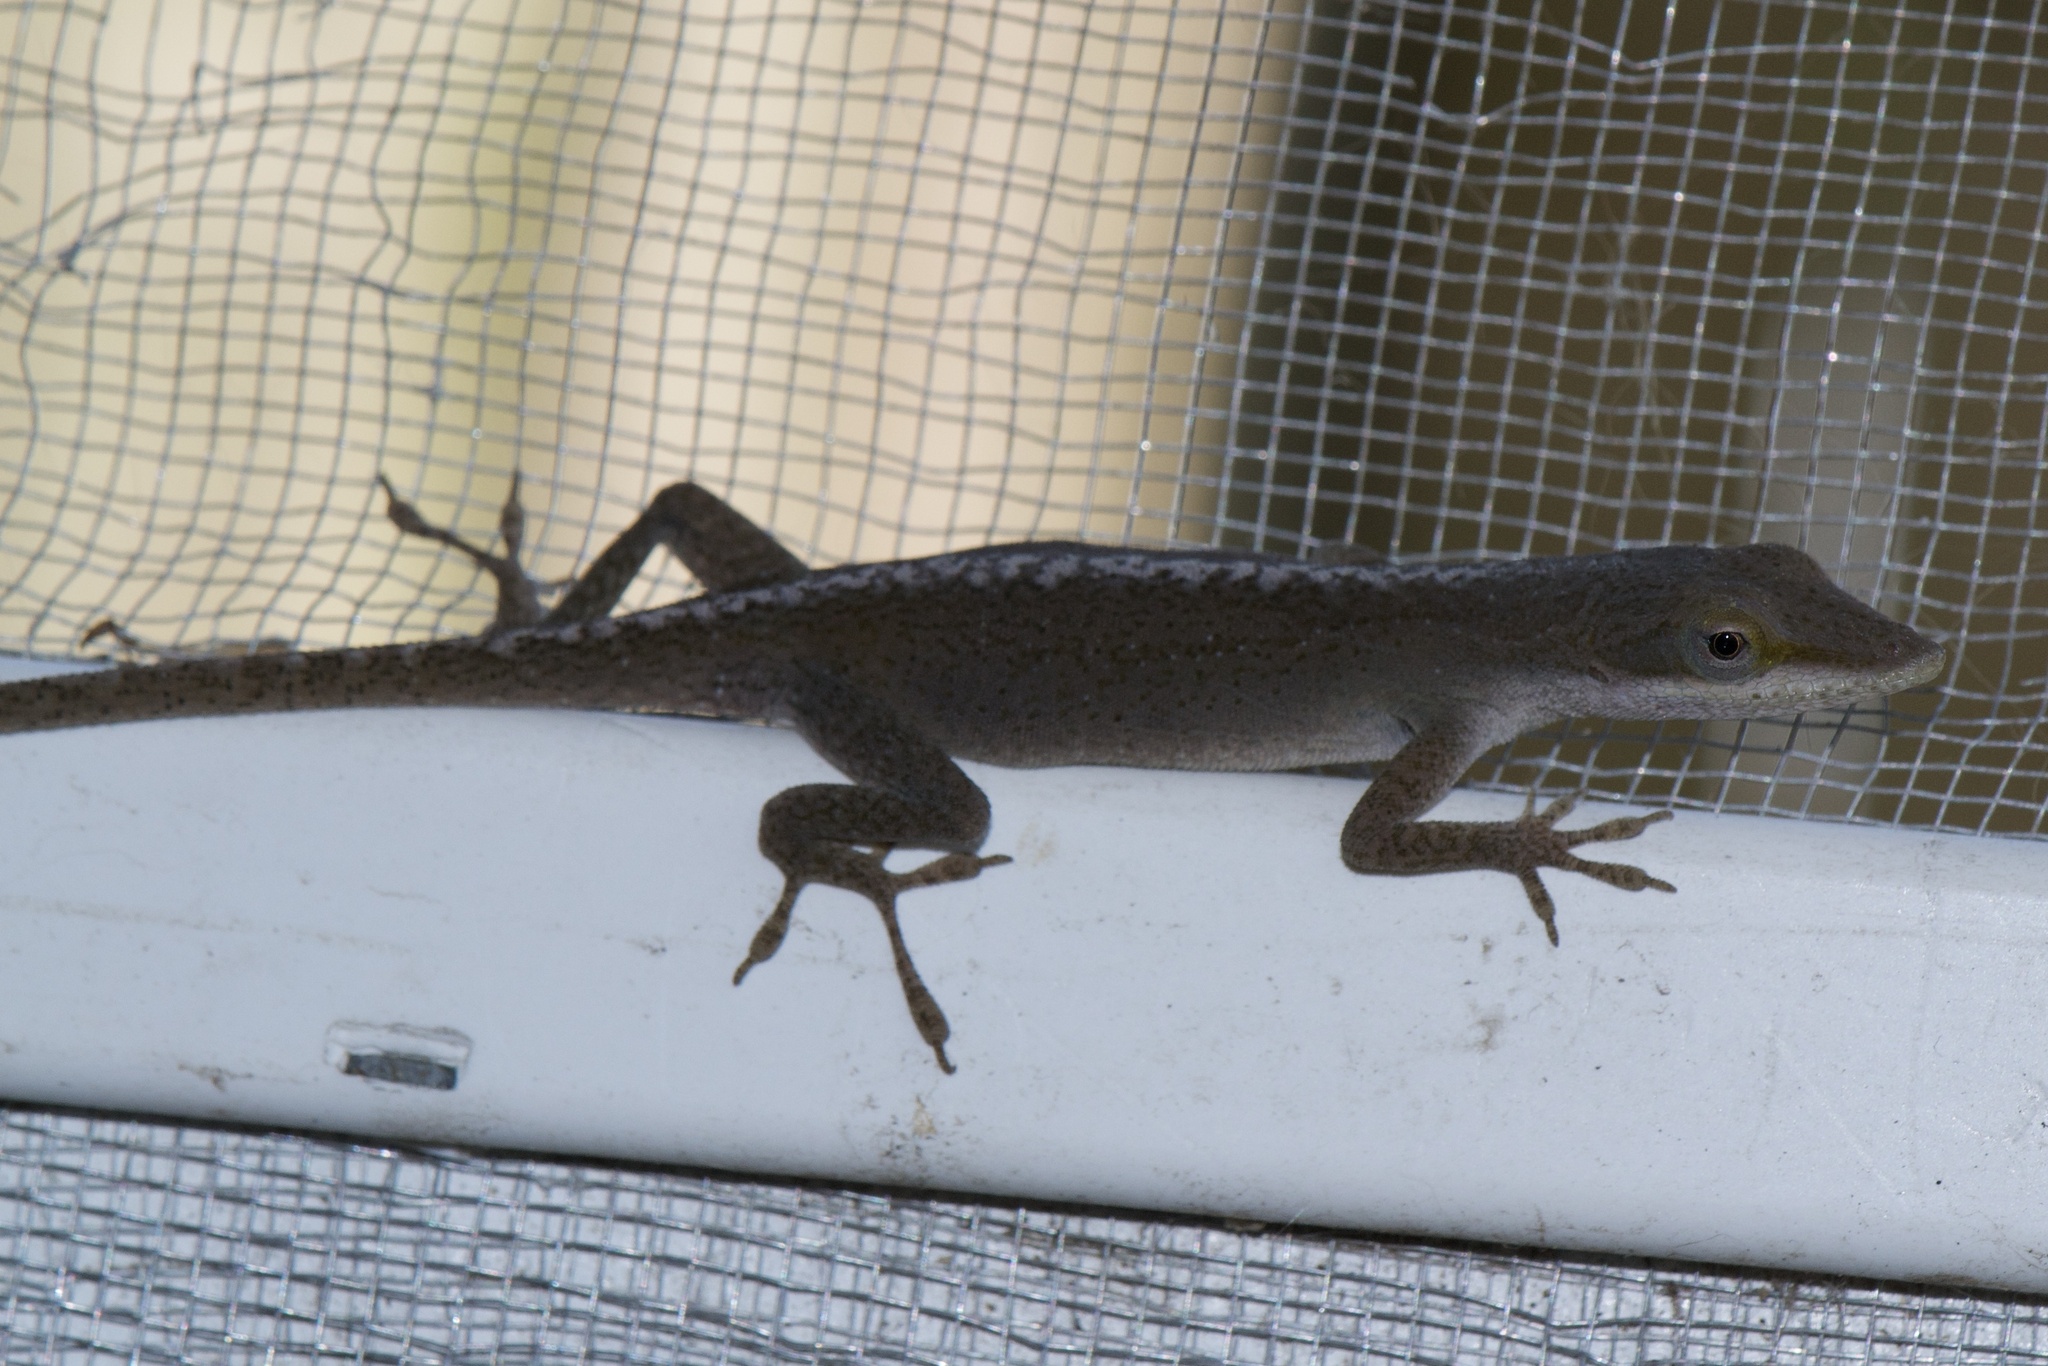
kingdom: Animalia
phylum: Chordata
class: Squamata
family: Dactyloidae
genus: Anolis
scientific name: Anolis carolinensis
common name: Green anole
